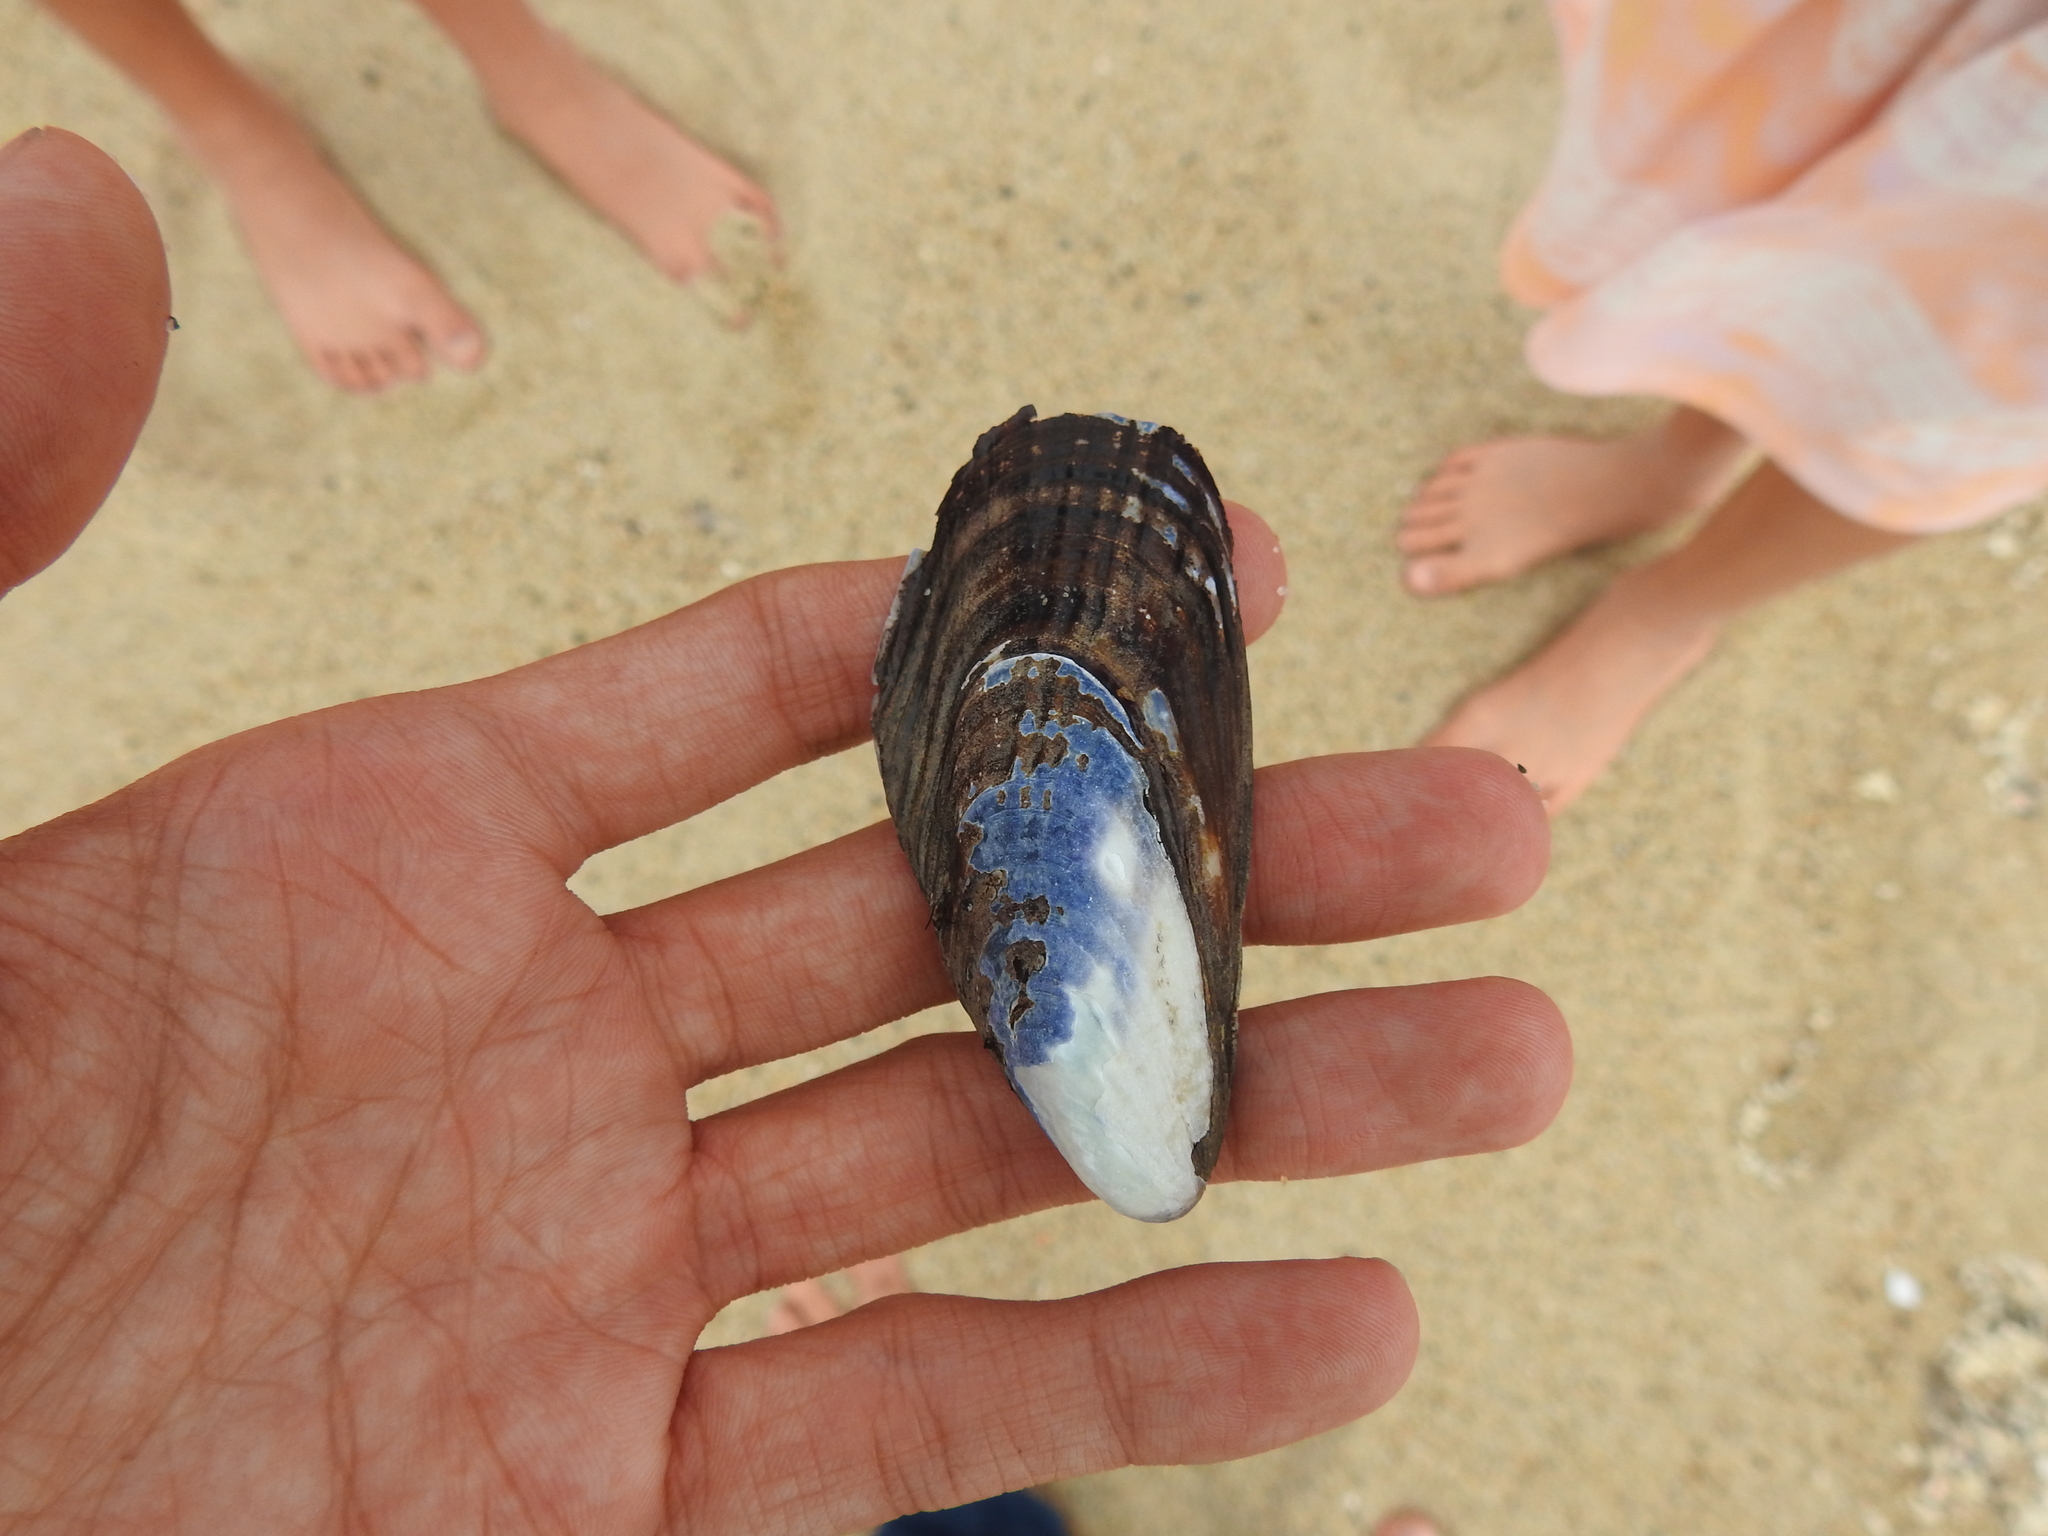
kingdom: Animalia
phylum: Mollusca
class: Bivalvia
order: Mytilida
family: Mytilidae
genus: Mytilus
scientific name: Mytilus californianus
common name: California mussel
